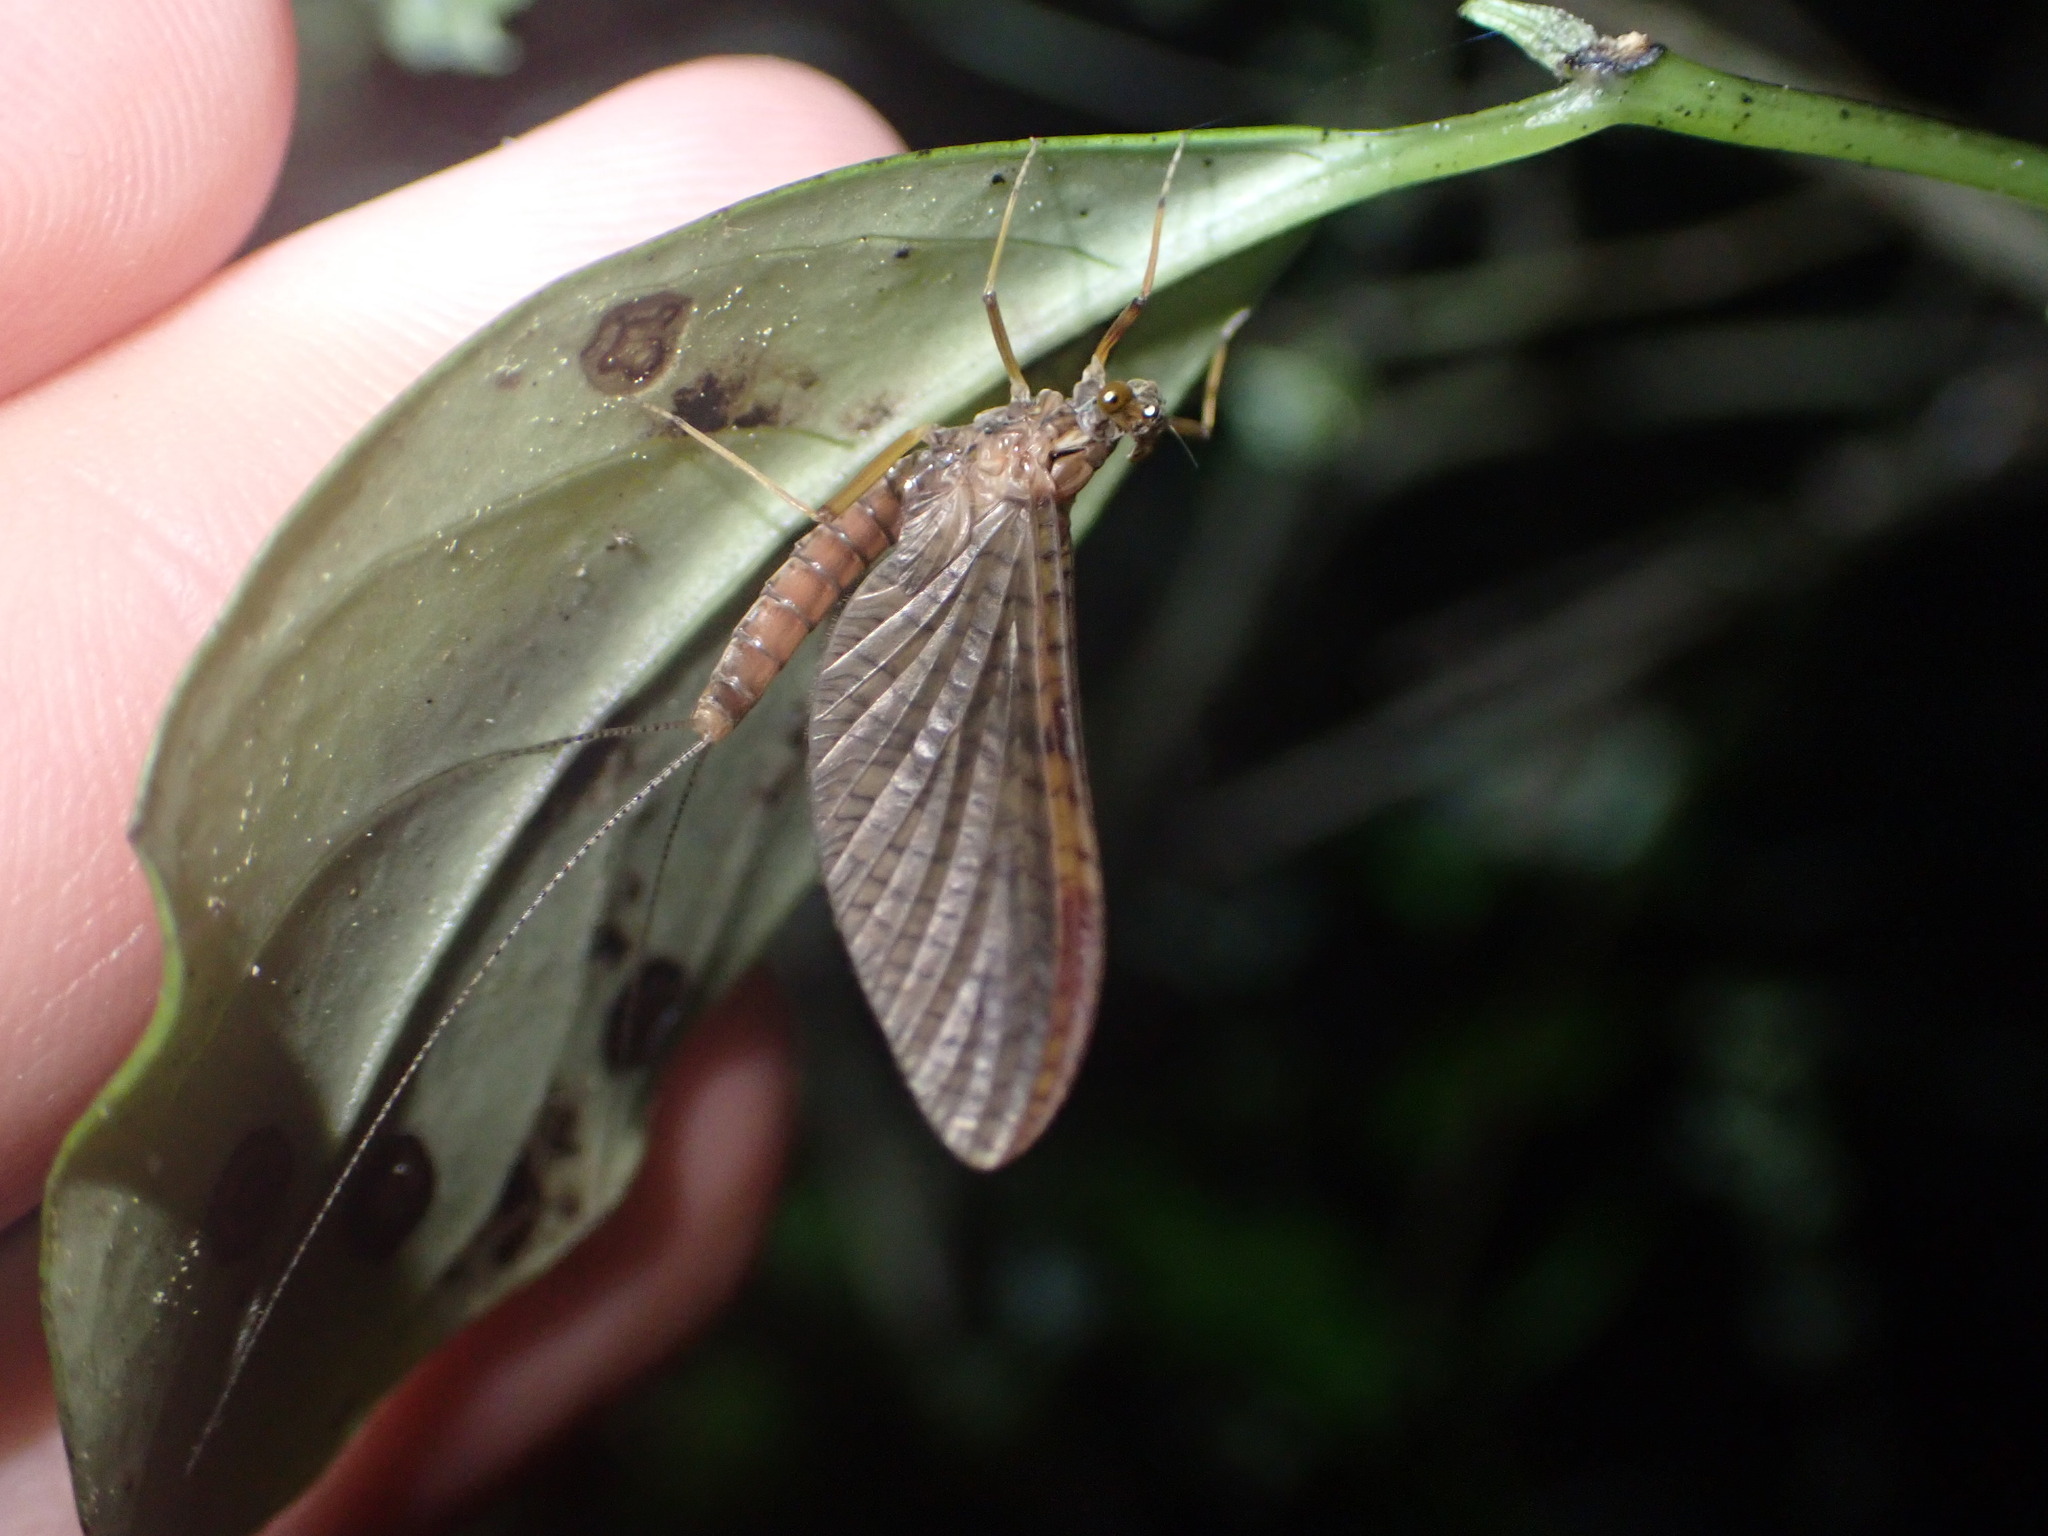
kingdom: Animalia
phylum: Arthropoda
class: Insecta
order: Ephemeroptera
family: Leptophlebiidae
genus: Zephlebia
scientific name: Zephlebia borealis
